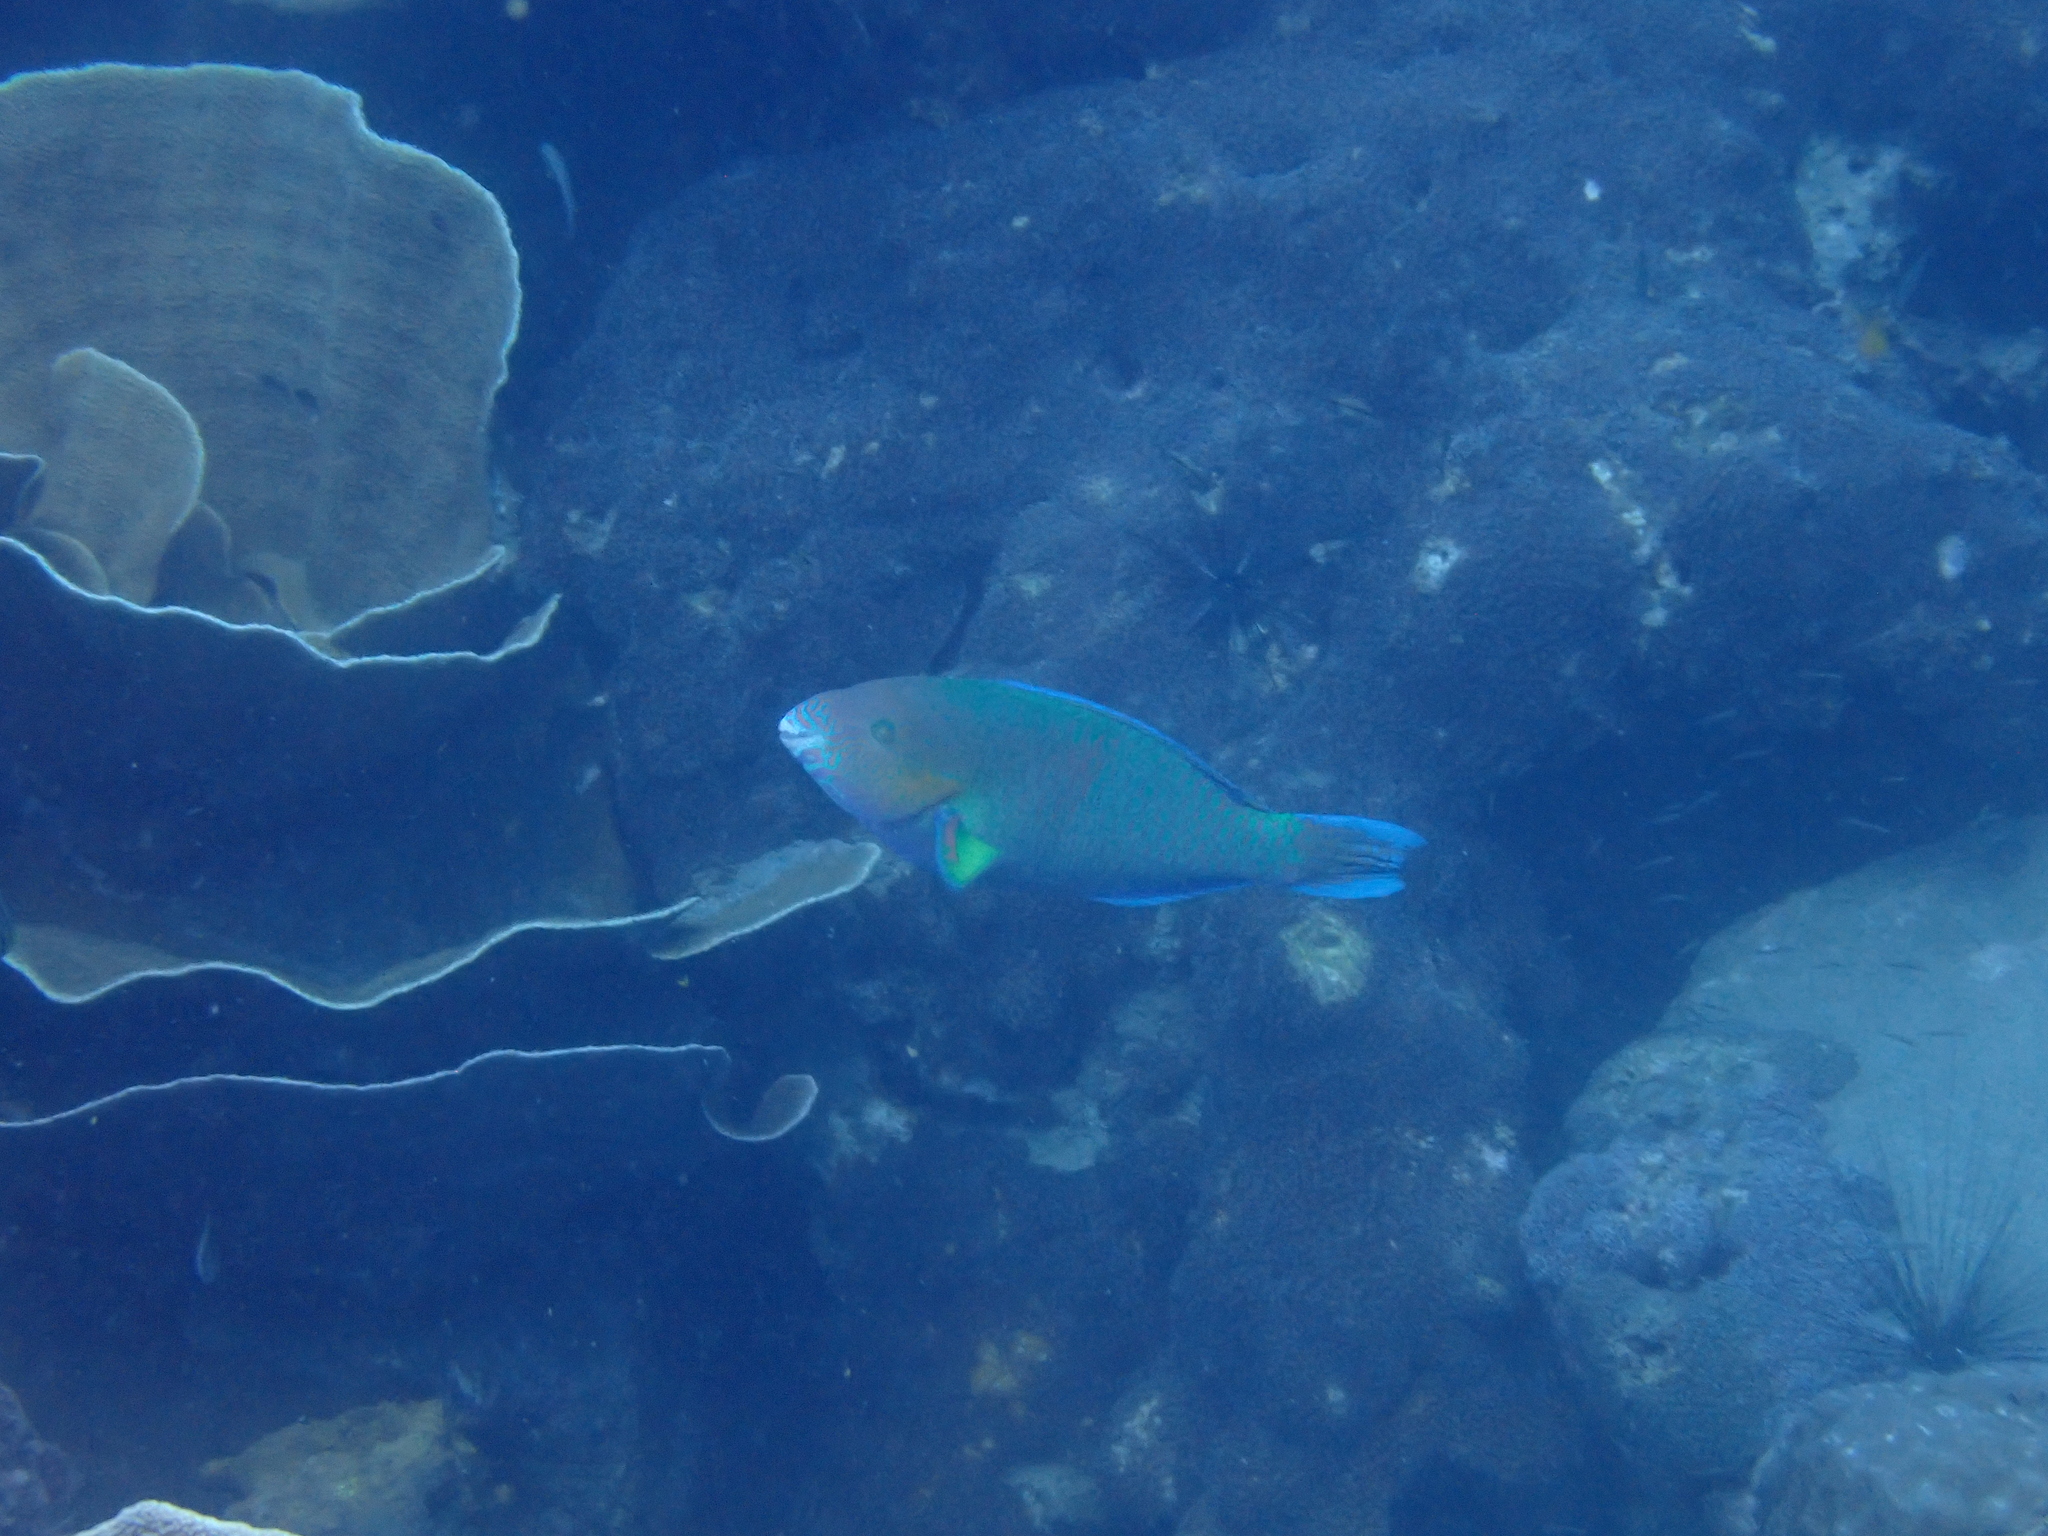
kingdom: Animalia
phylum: Chordata
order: Perciformes
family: Scaridae
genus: Scarus
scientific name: Scarus rivulatus
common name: Surf parrotfish
